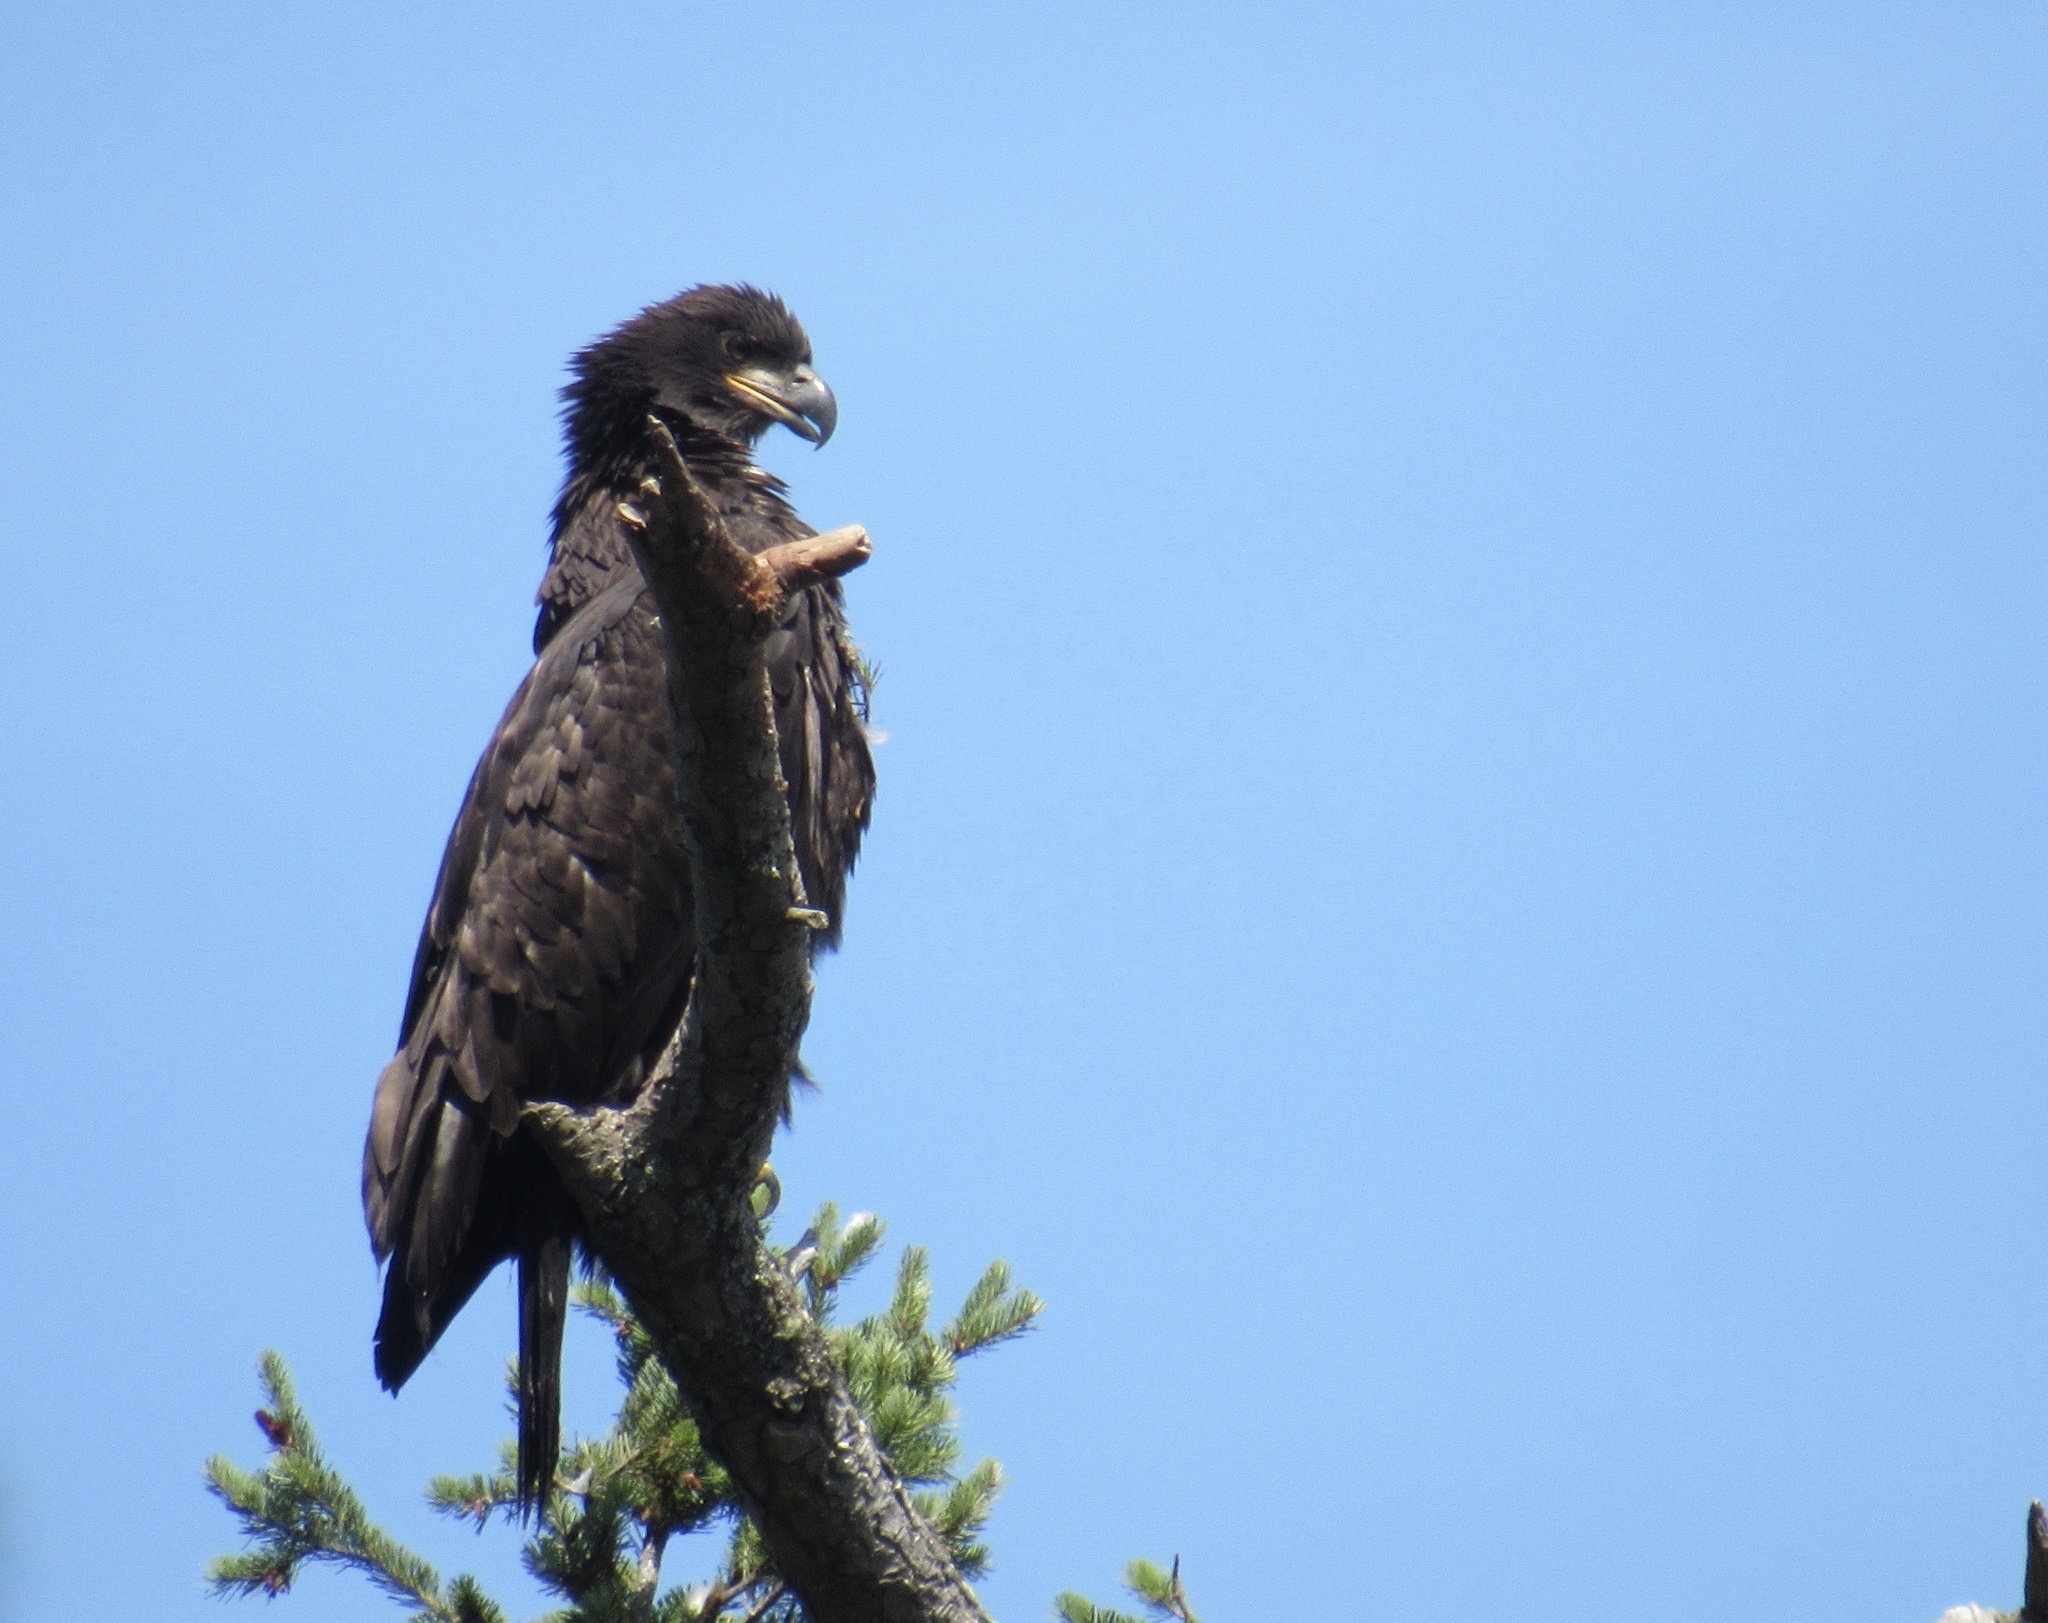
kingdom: Animalia
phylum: Chordata
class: Aves
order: Accipitriformes
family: Accipitridae
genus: Haliaeetus
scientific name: Haliaeetus leucocephalus
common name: Bald eagle
